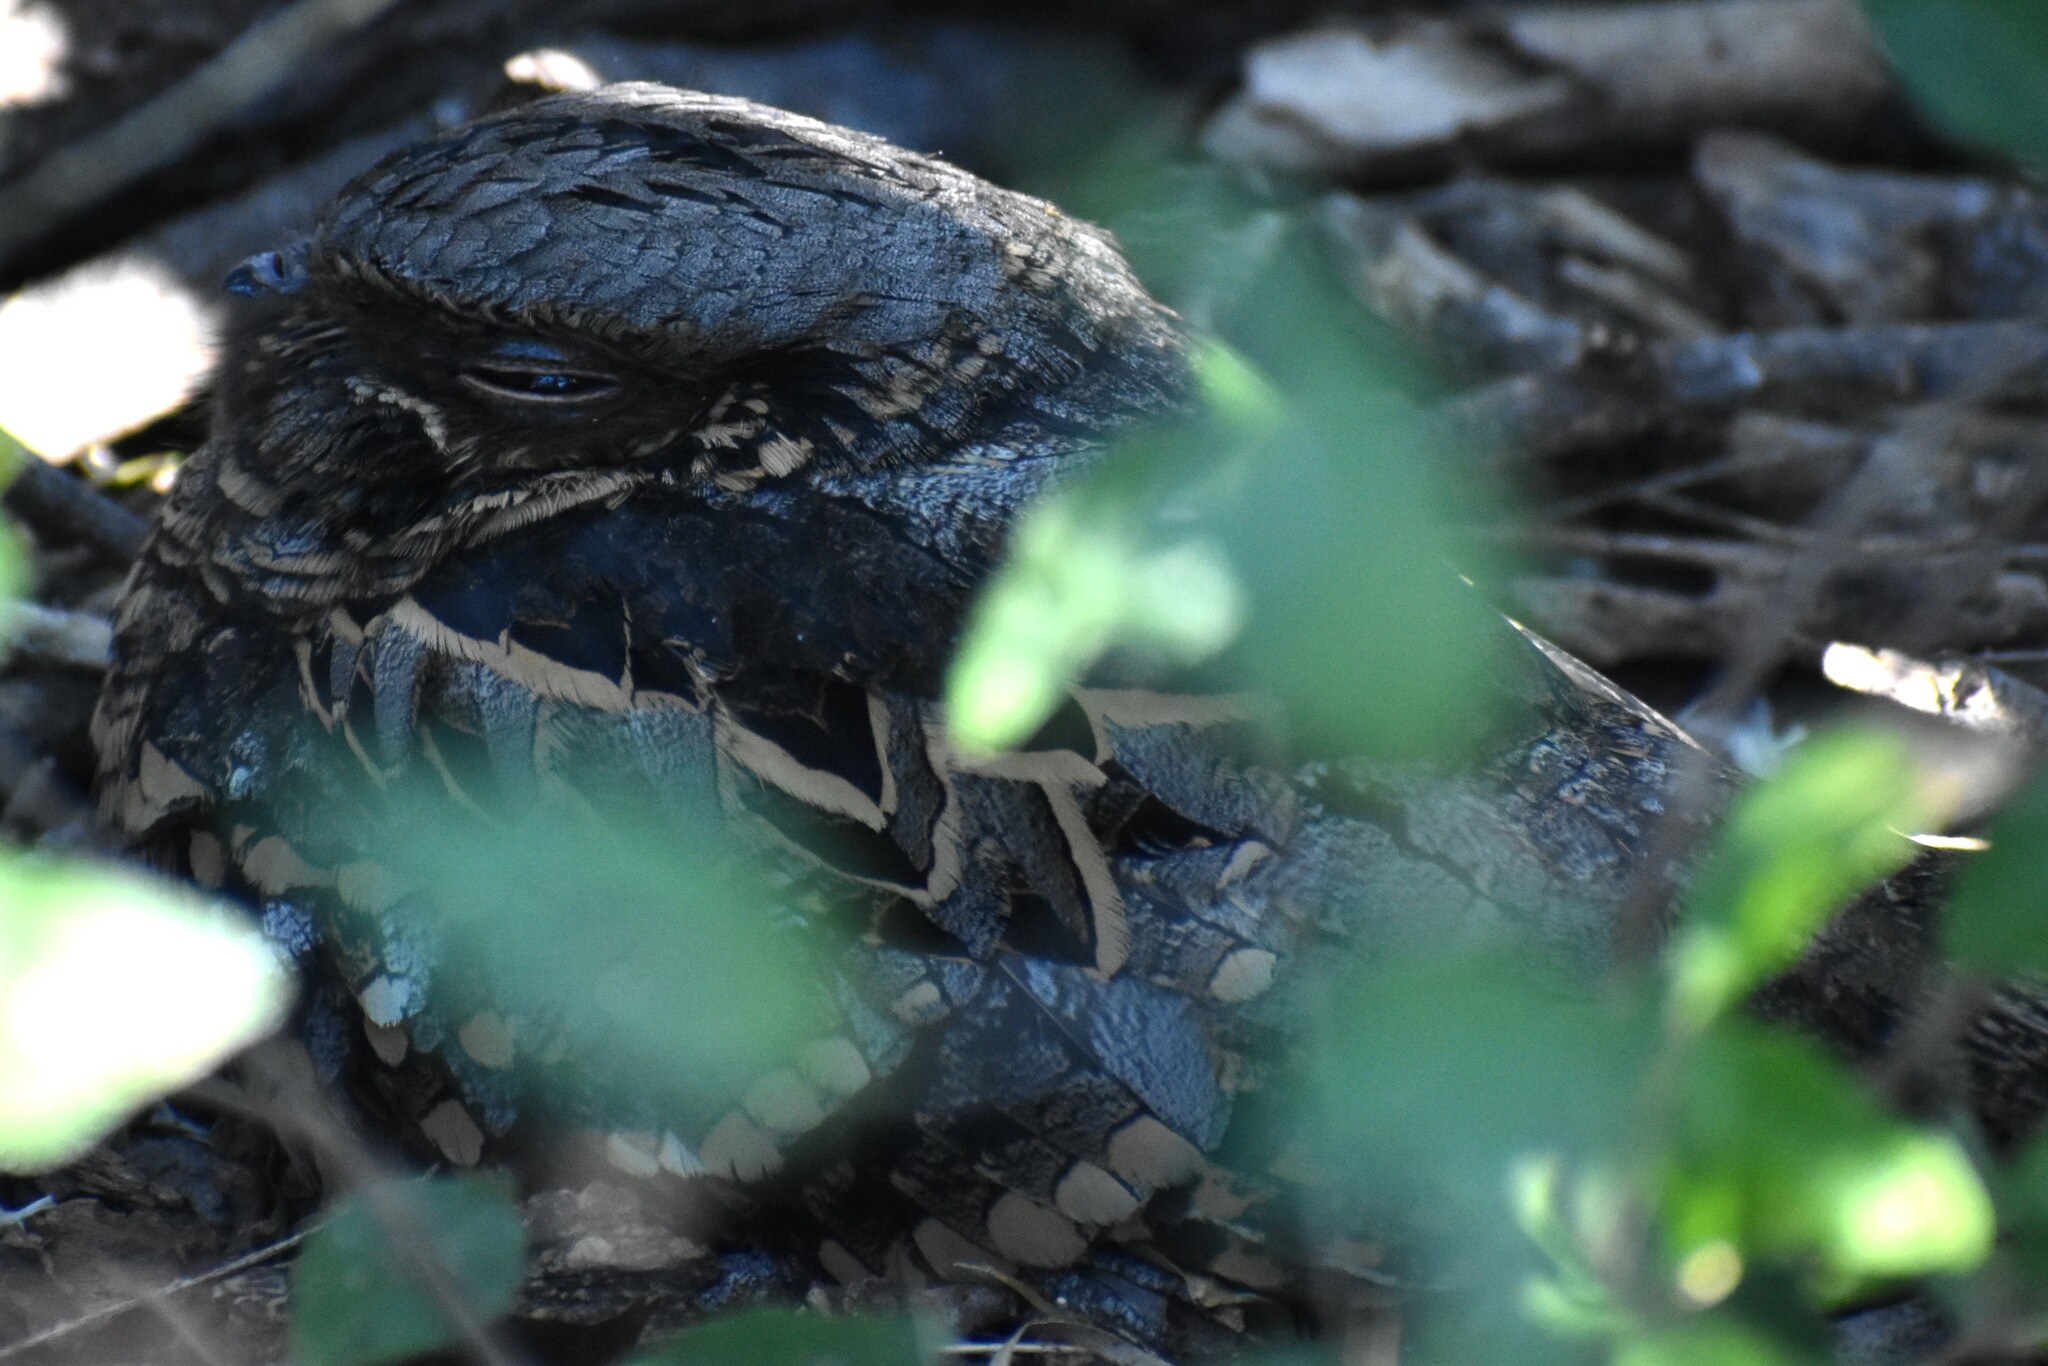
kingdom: Animalia
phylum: Chordata
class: Aves
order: Caprimulgiformes
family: Caprimulgidae
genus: Nyctidromus
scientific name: Nyctidromus albicollis
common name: Pauraque
